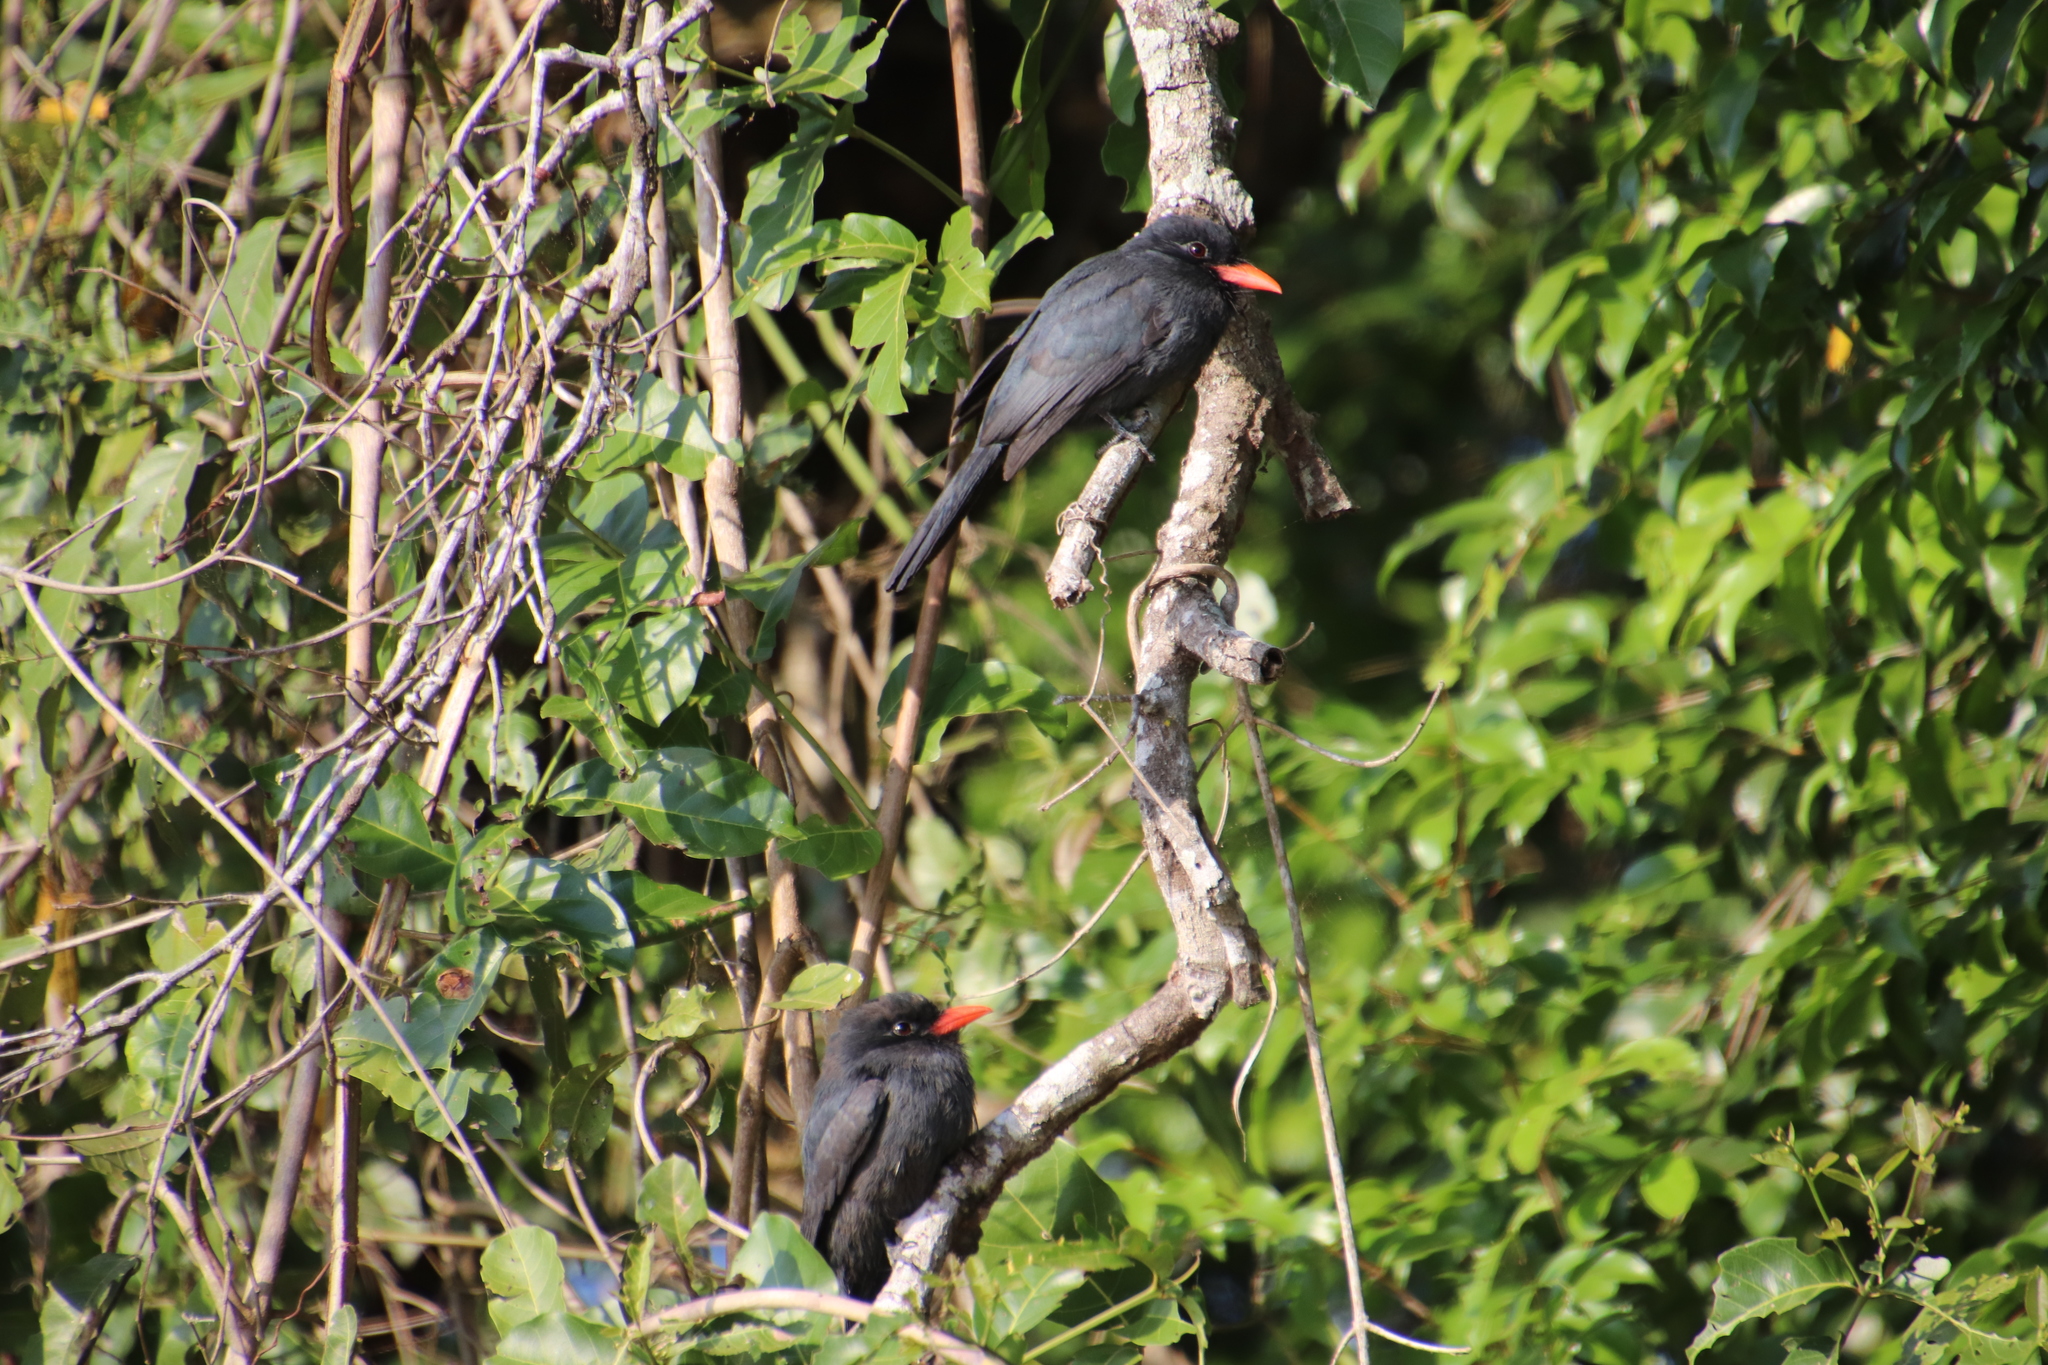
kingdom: Animalia
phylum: Chordata
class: Aves
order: Piciformes
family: Bucconidae
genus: Monasa
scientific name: Monasa nigrifrons
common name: Black-fronted nunbird
